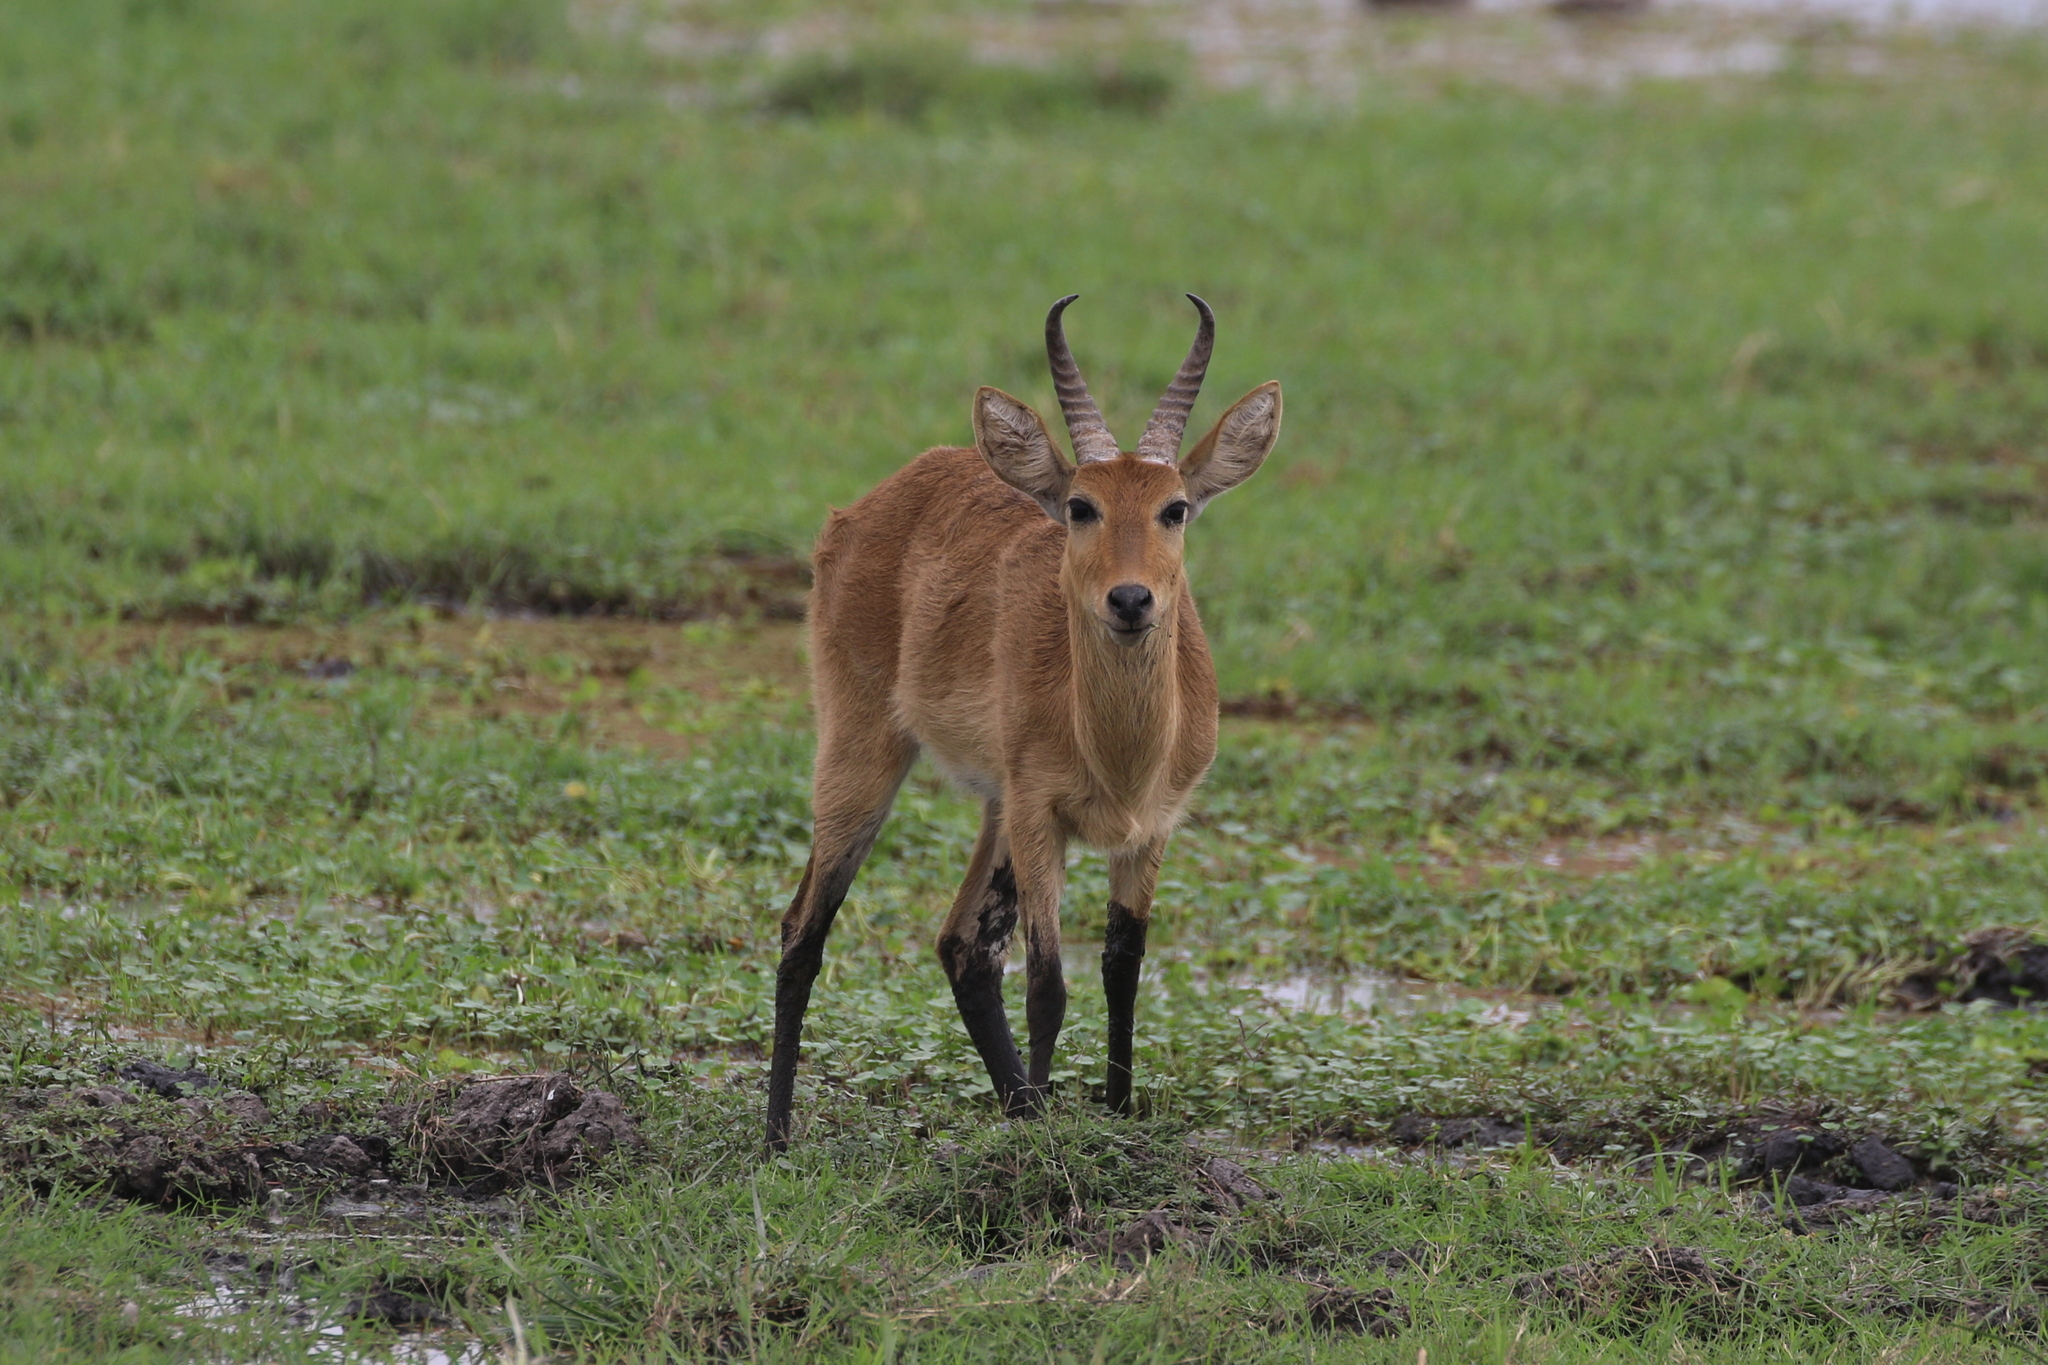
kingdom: Animalia
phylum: Chordata
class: Mammalia
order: Artiodactyla
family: Bovidae
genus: Redunca
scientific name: Redunca redunca
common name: Common reedbuck
